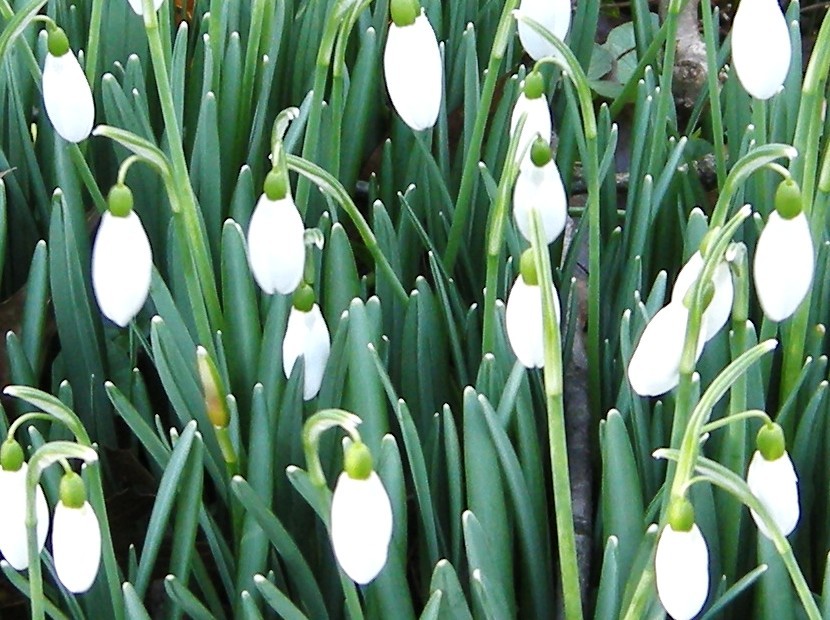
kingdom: Plantae
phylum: Tracheophyta
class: Liliopsida
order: Asparagales
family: Amaryllidaceae
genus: Galanthus
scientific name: Galanthus nivalis
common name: Snowdrop
